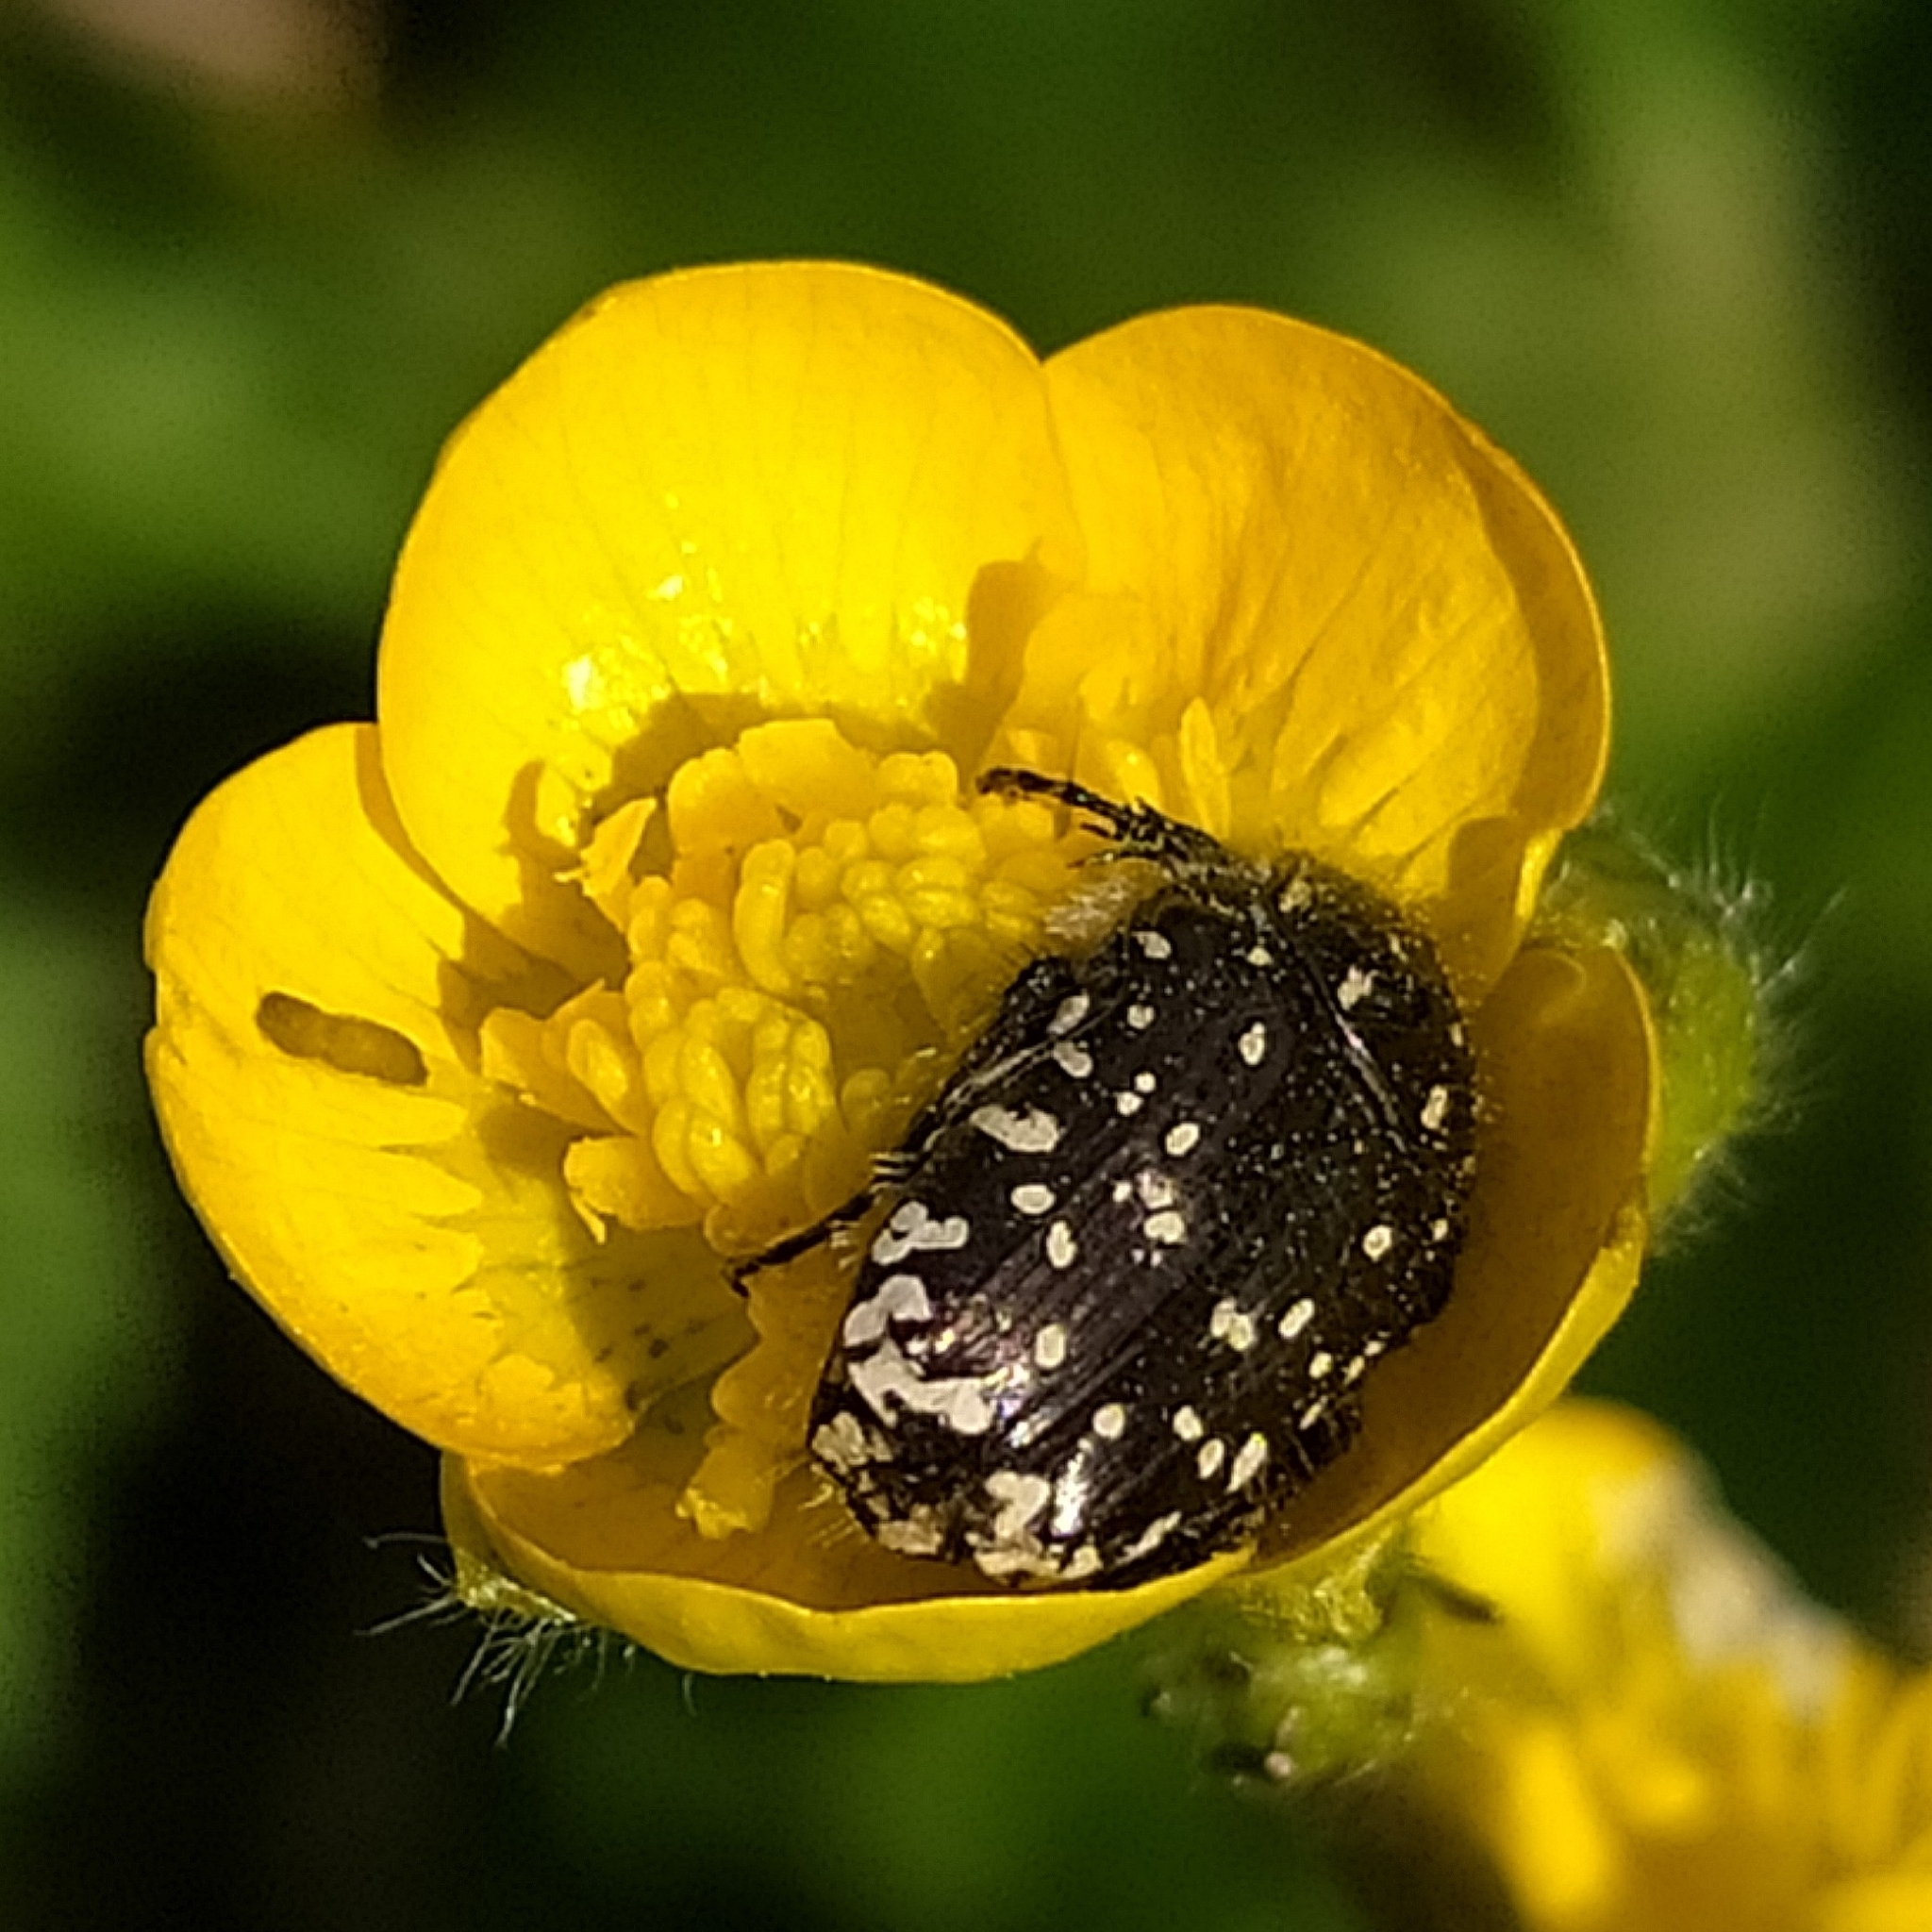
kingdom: Animalia
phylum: Arthropoda
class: Insecta
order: Coleoptera
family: Scarabaeidae
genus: Oxythyrea
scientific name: Oxythyrea funesta
